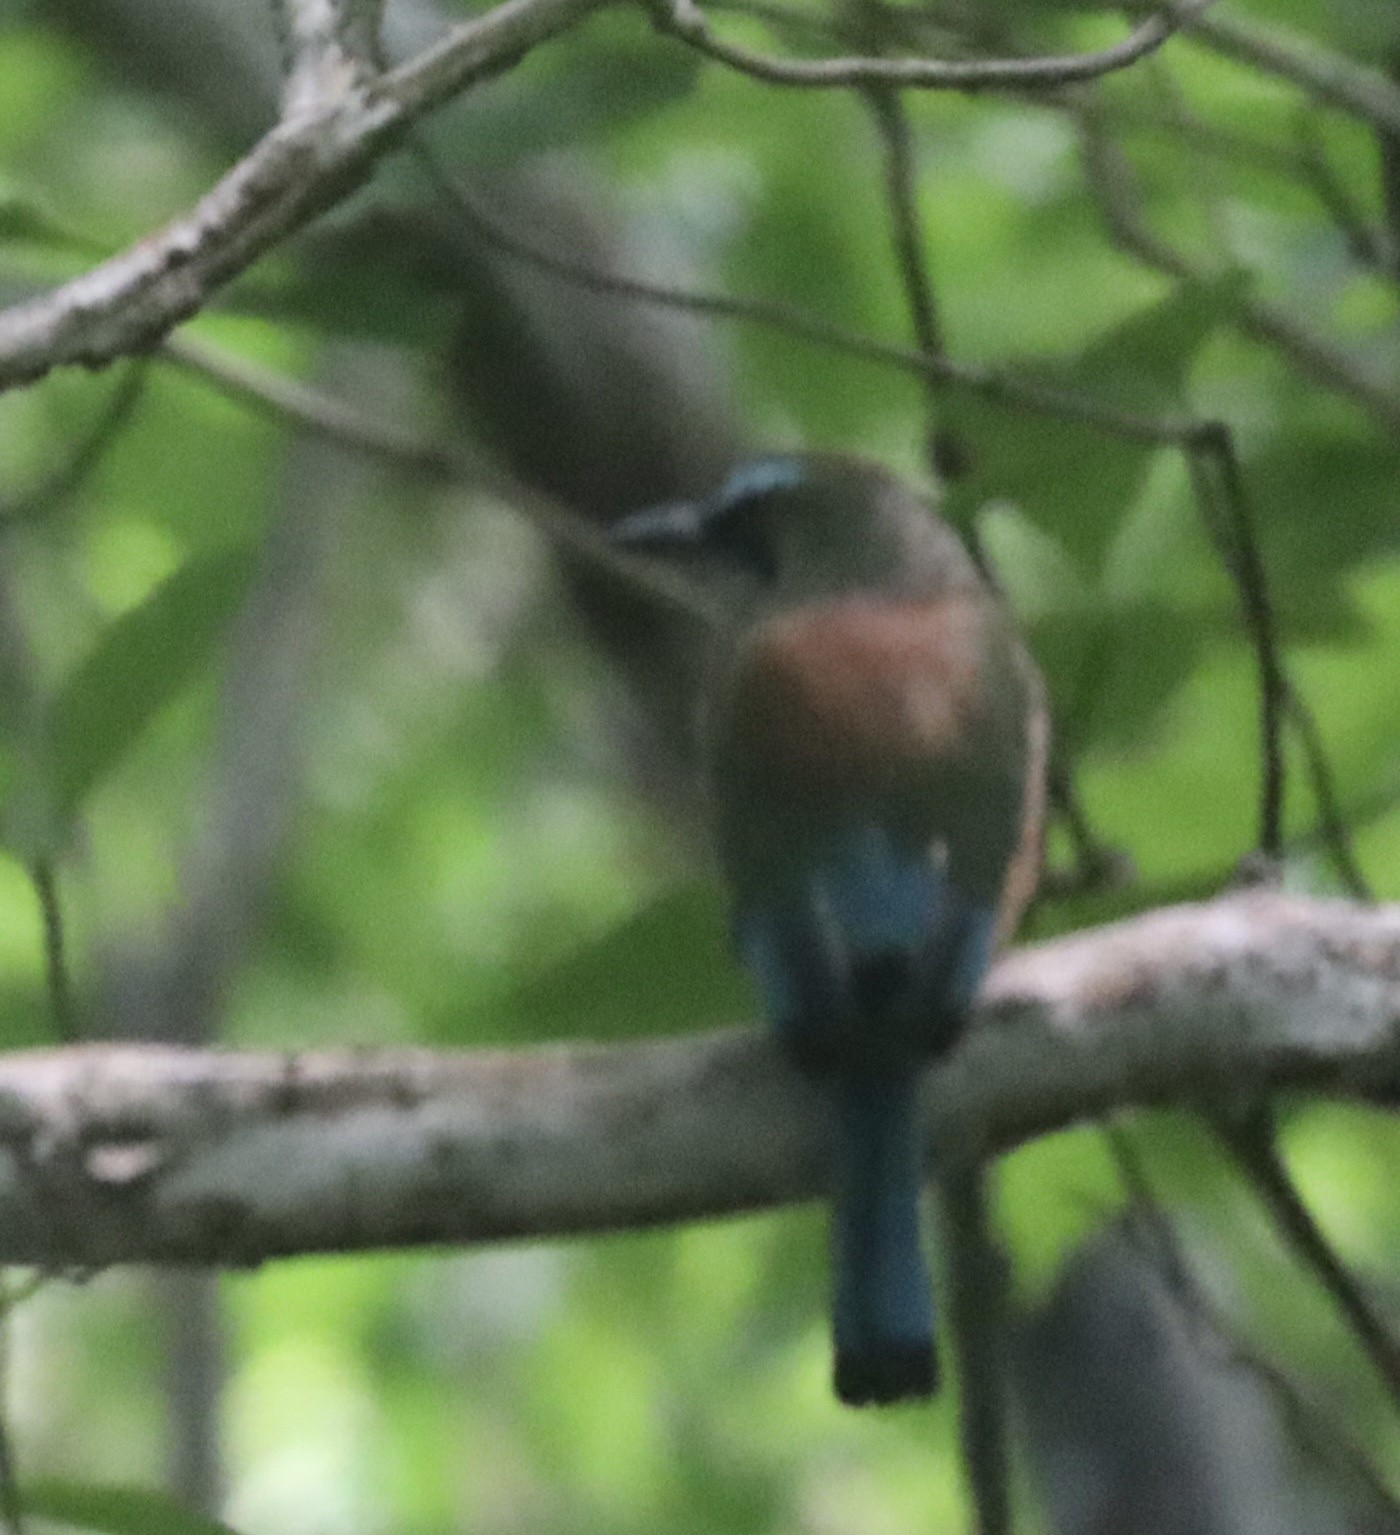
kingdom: Animalia
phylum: Chordata
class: Aves
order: Coraciiformes
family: Momotidae
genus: Eumomota
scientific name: Eumomota superciliosa
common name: Turquoise-browed motmot
